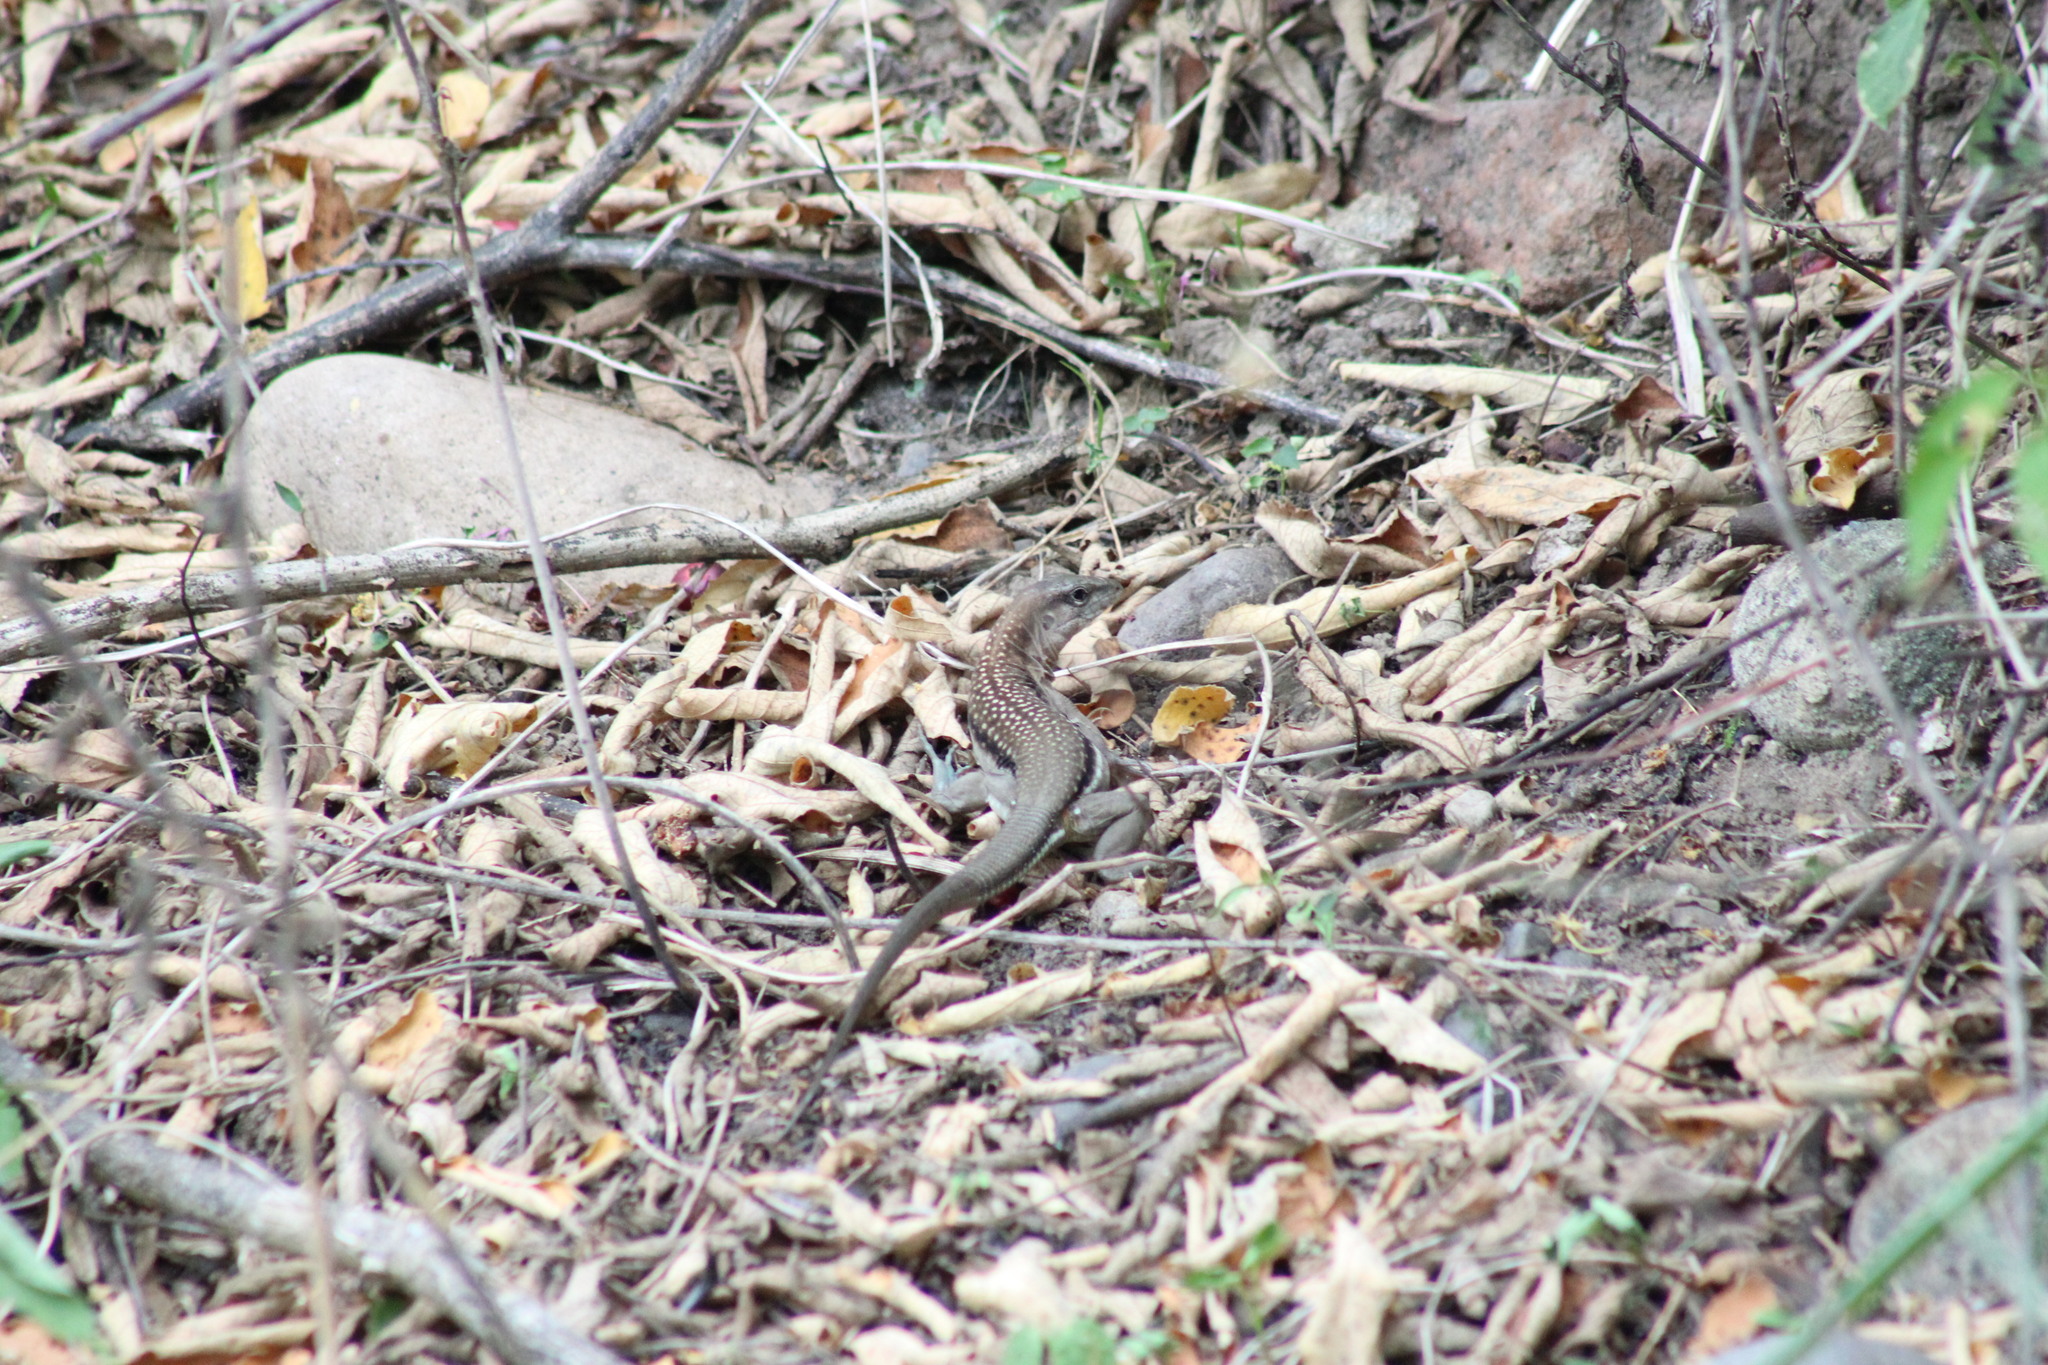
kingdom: Animalia
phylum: Chordata
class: Squamata
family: Teiidae
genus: Aspidoscelis
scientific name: Aspidoscelis guttatus
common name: Mexican racerunner
